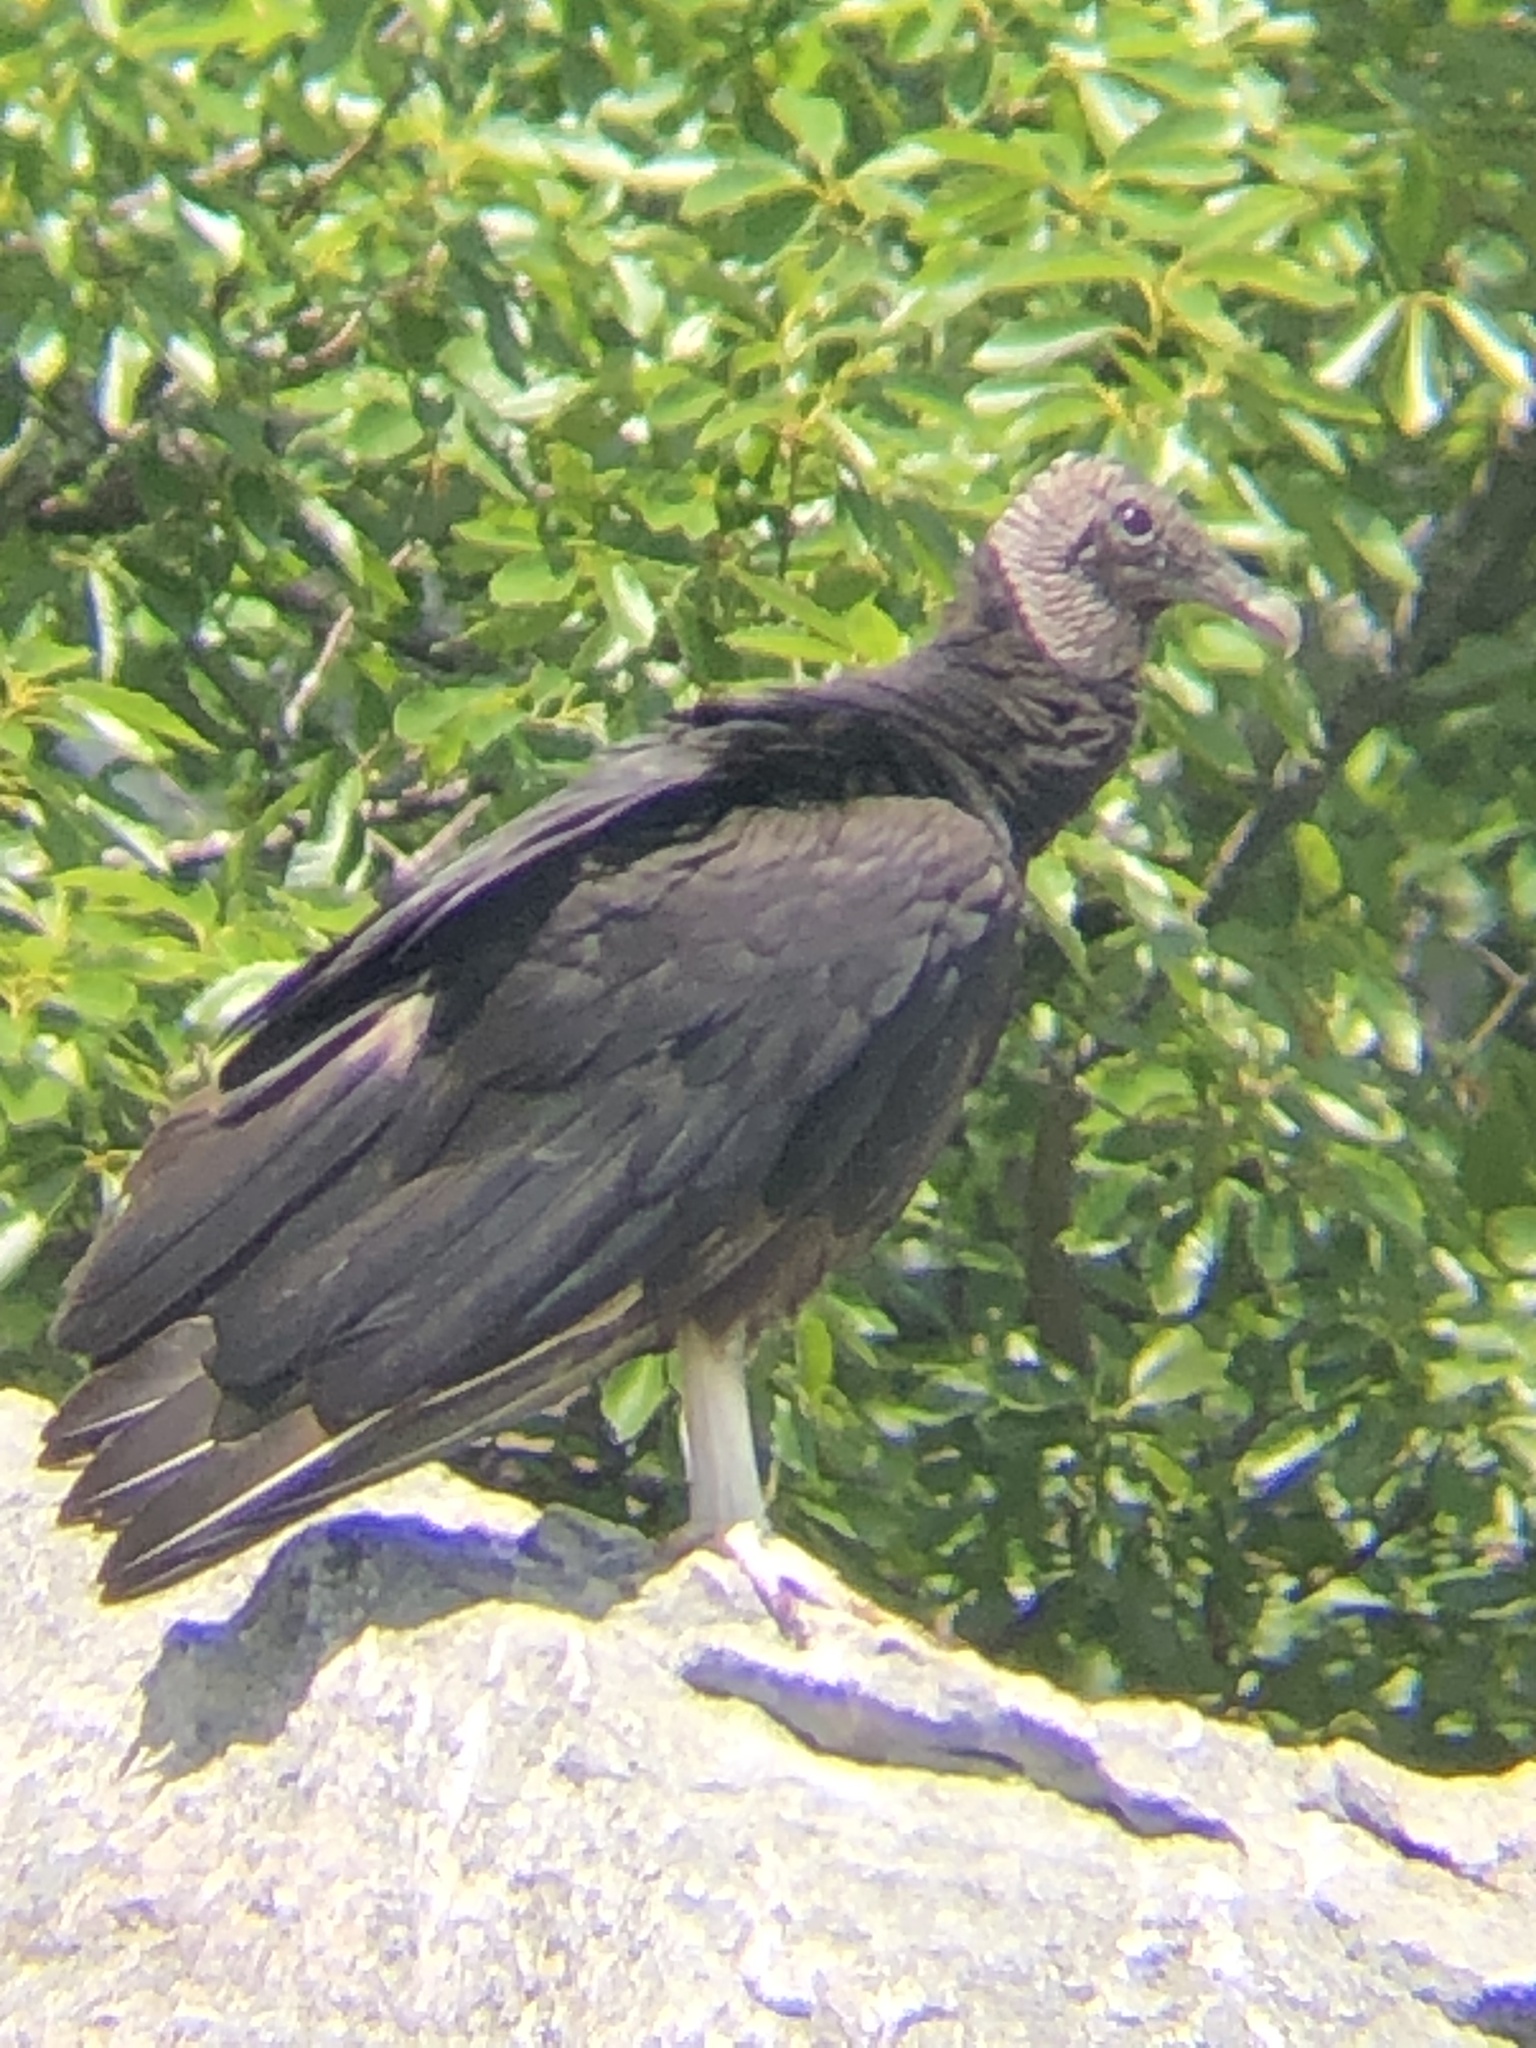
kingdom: Animalia
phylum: Chordata
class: Aves
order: Accipitriformes
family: Cathartidae
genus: Coragyps
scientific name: Coragyps atratus
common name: Black vulture
